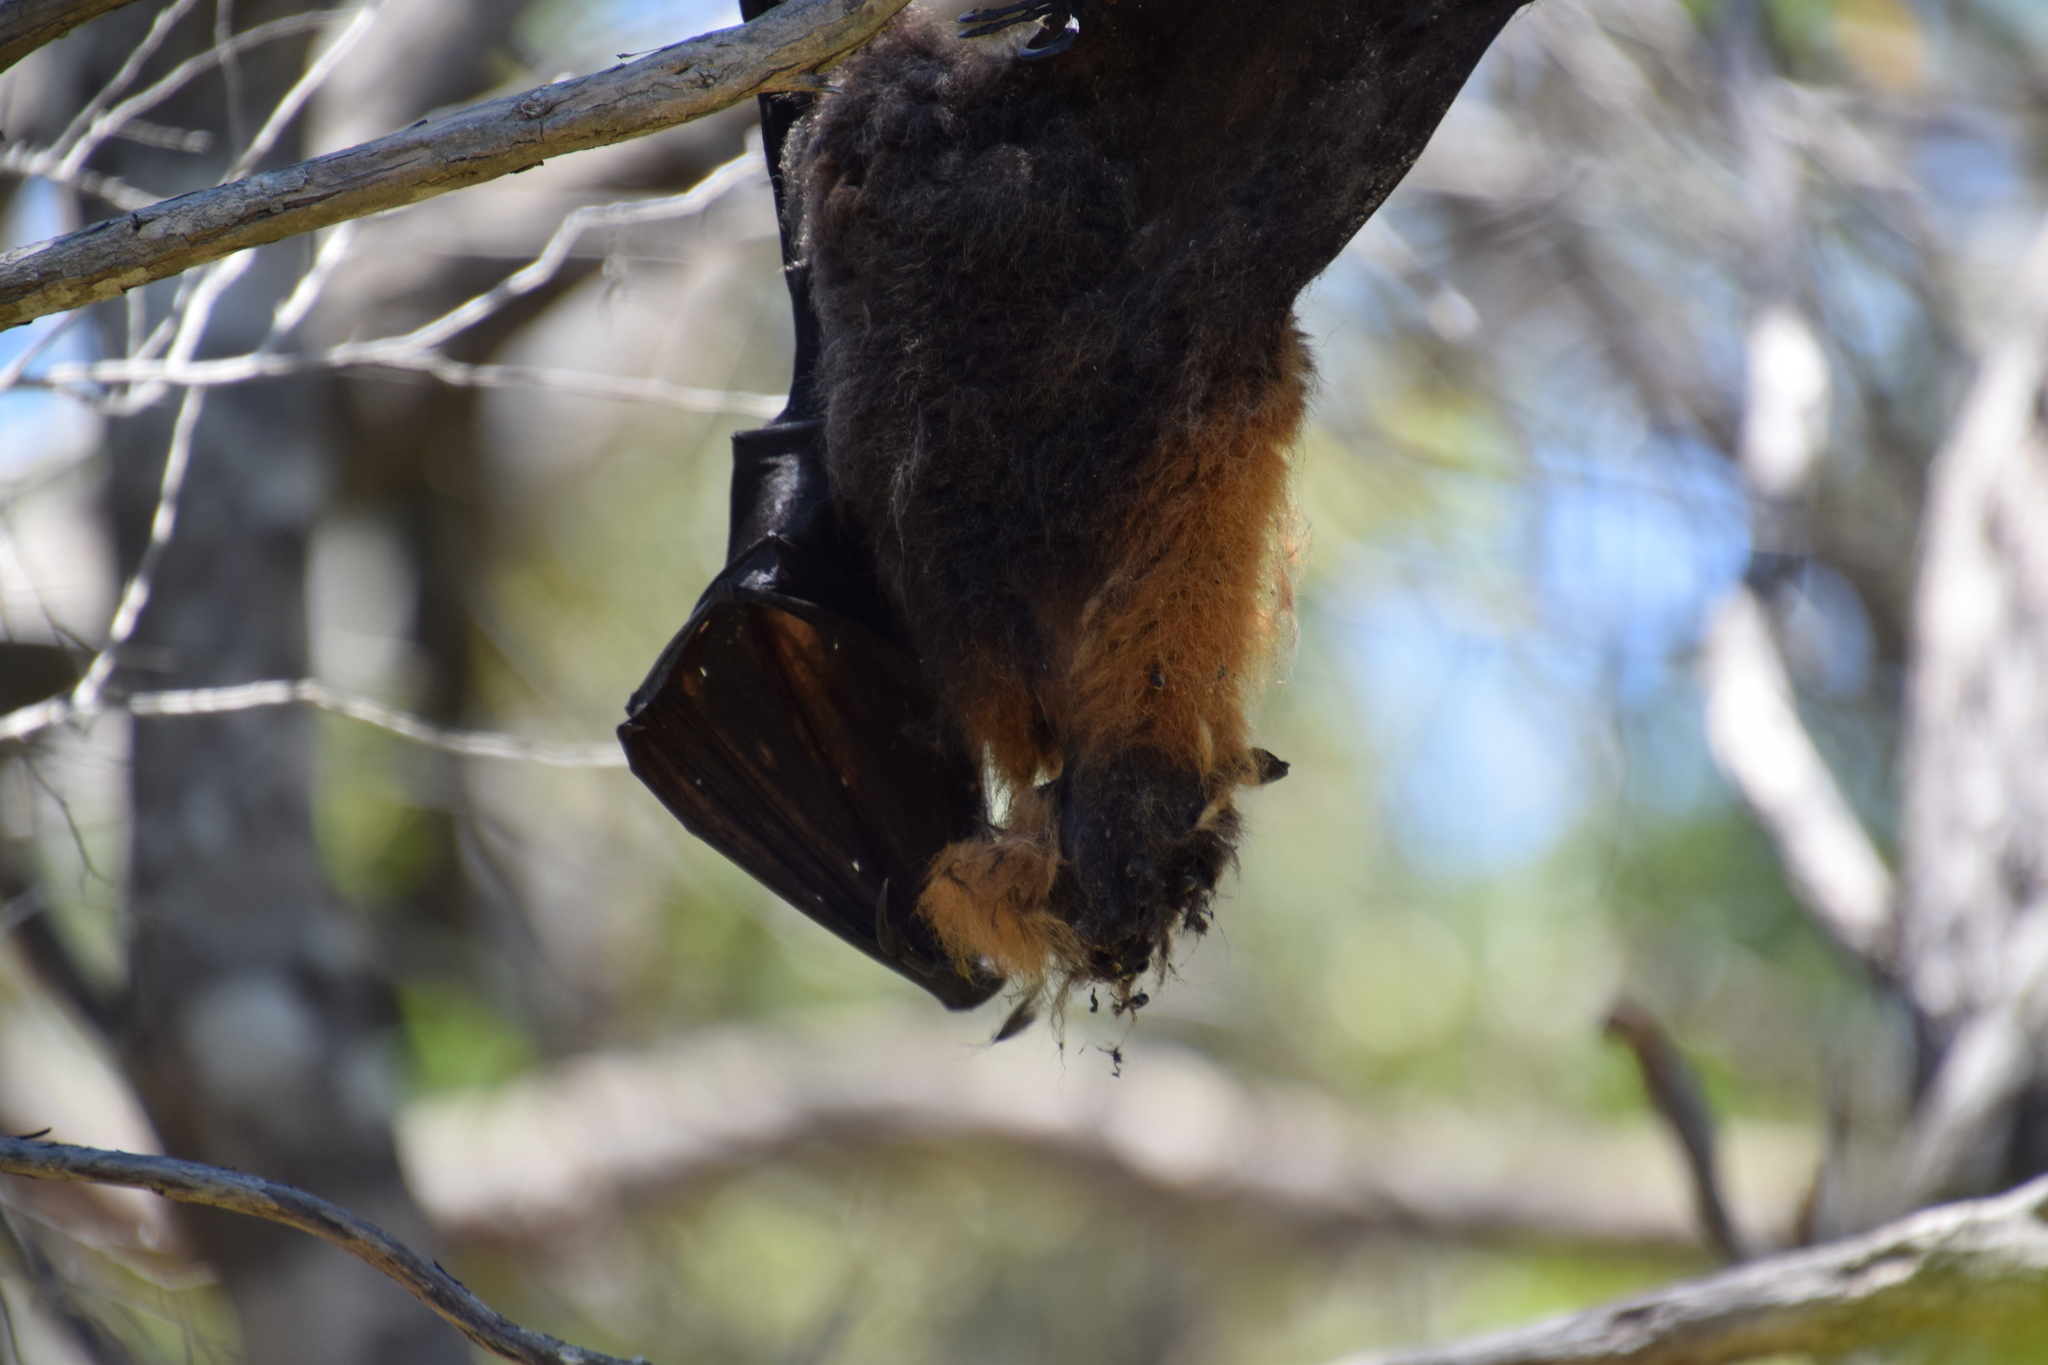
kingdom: Animalia
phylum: Chordata
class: Mammalia
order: Chiroptera
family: Pteropodidae
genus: Pteropus
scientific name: Pteropus poliocephalus
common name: Gray-headed flying fox
